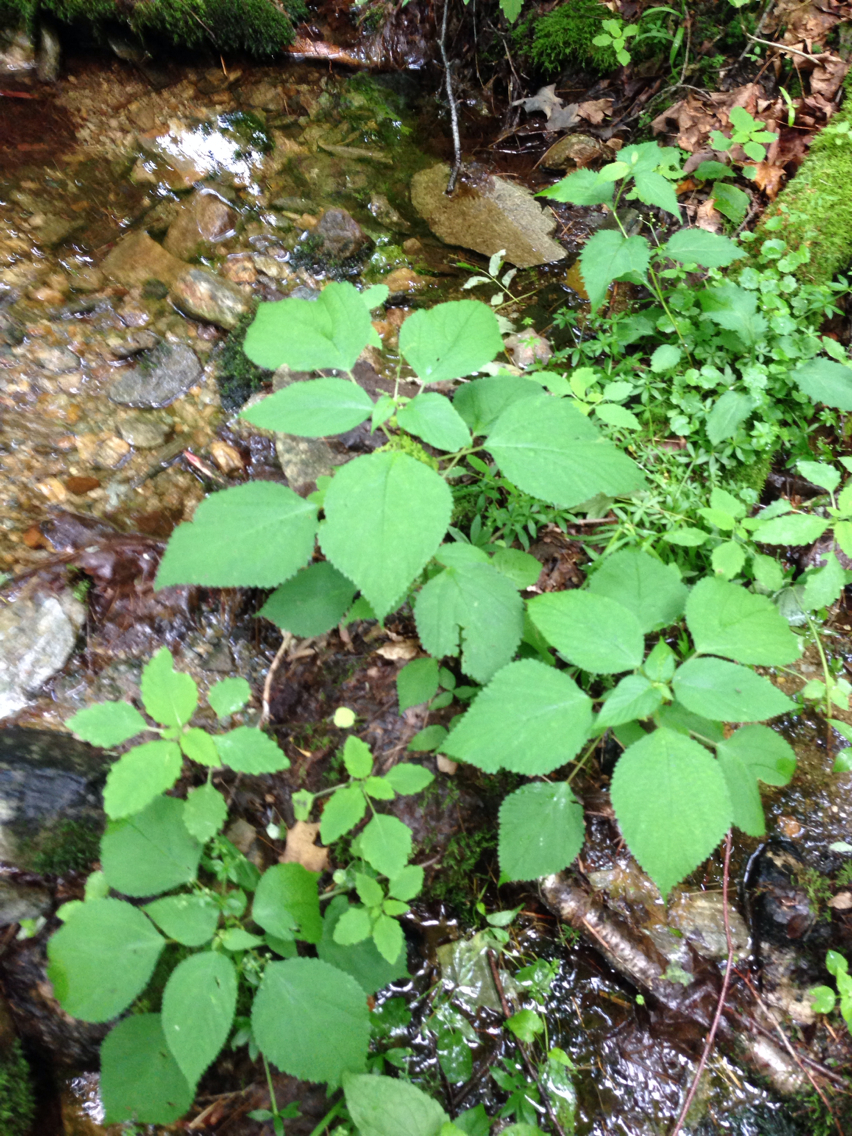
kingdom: Plantae
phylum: Tracheophyta
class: Magnoliopsida
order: Rosales
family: Urticaceae
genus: Laportea
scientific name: Laportea canadensis
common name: Canada nettle
